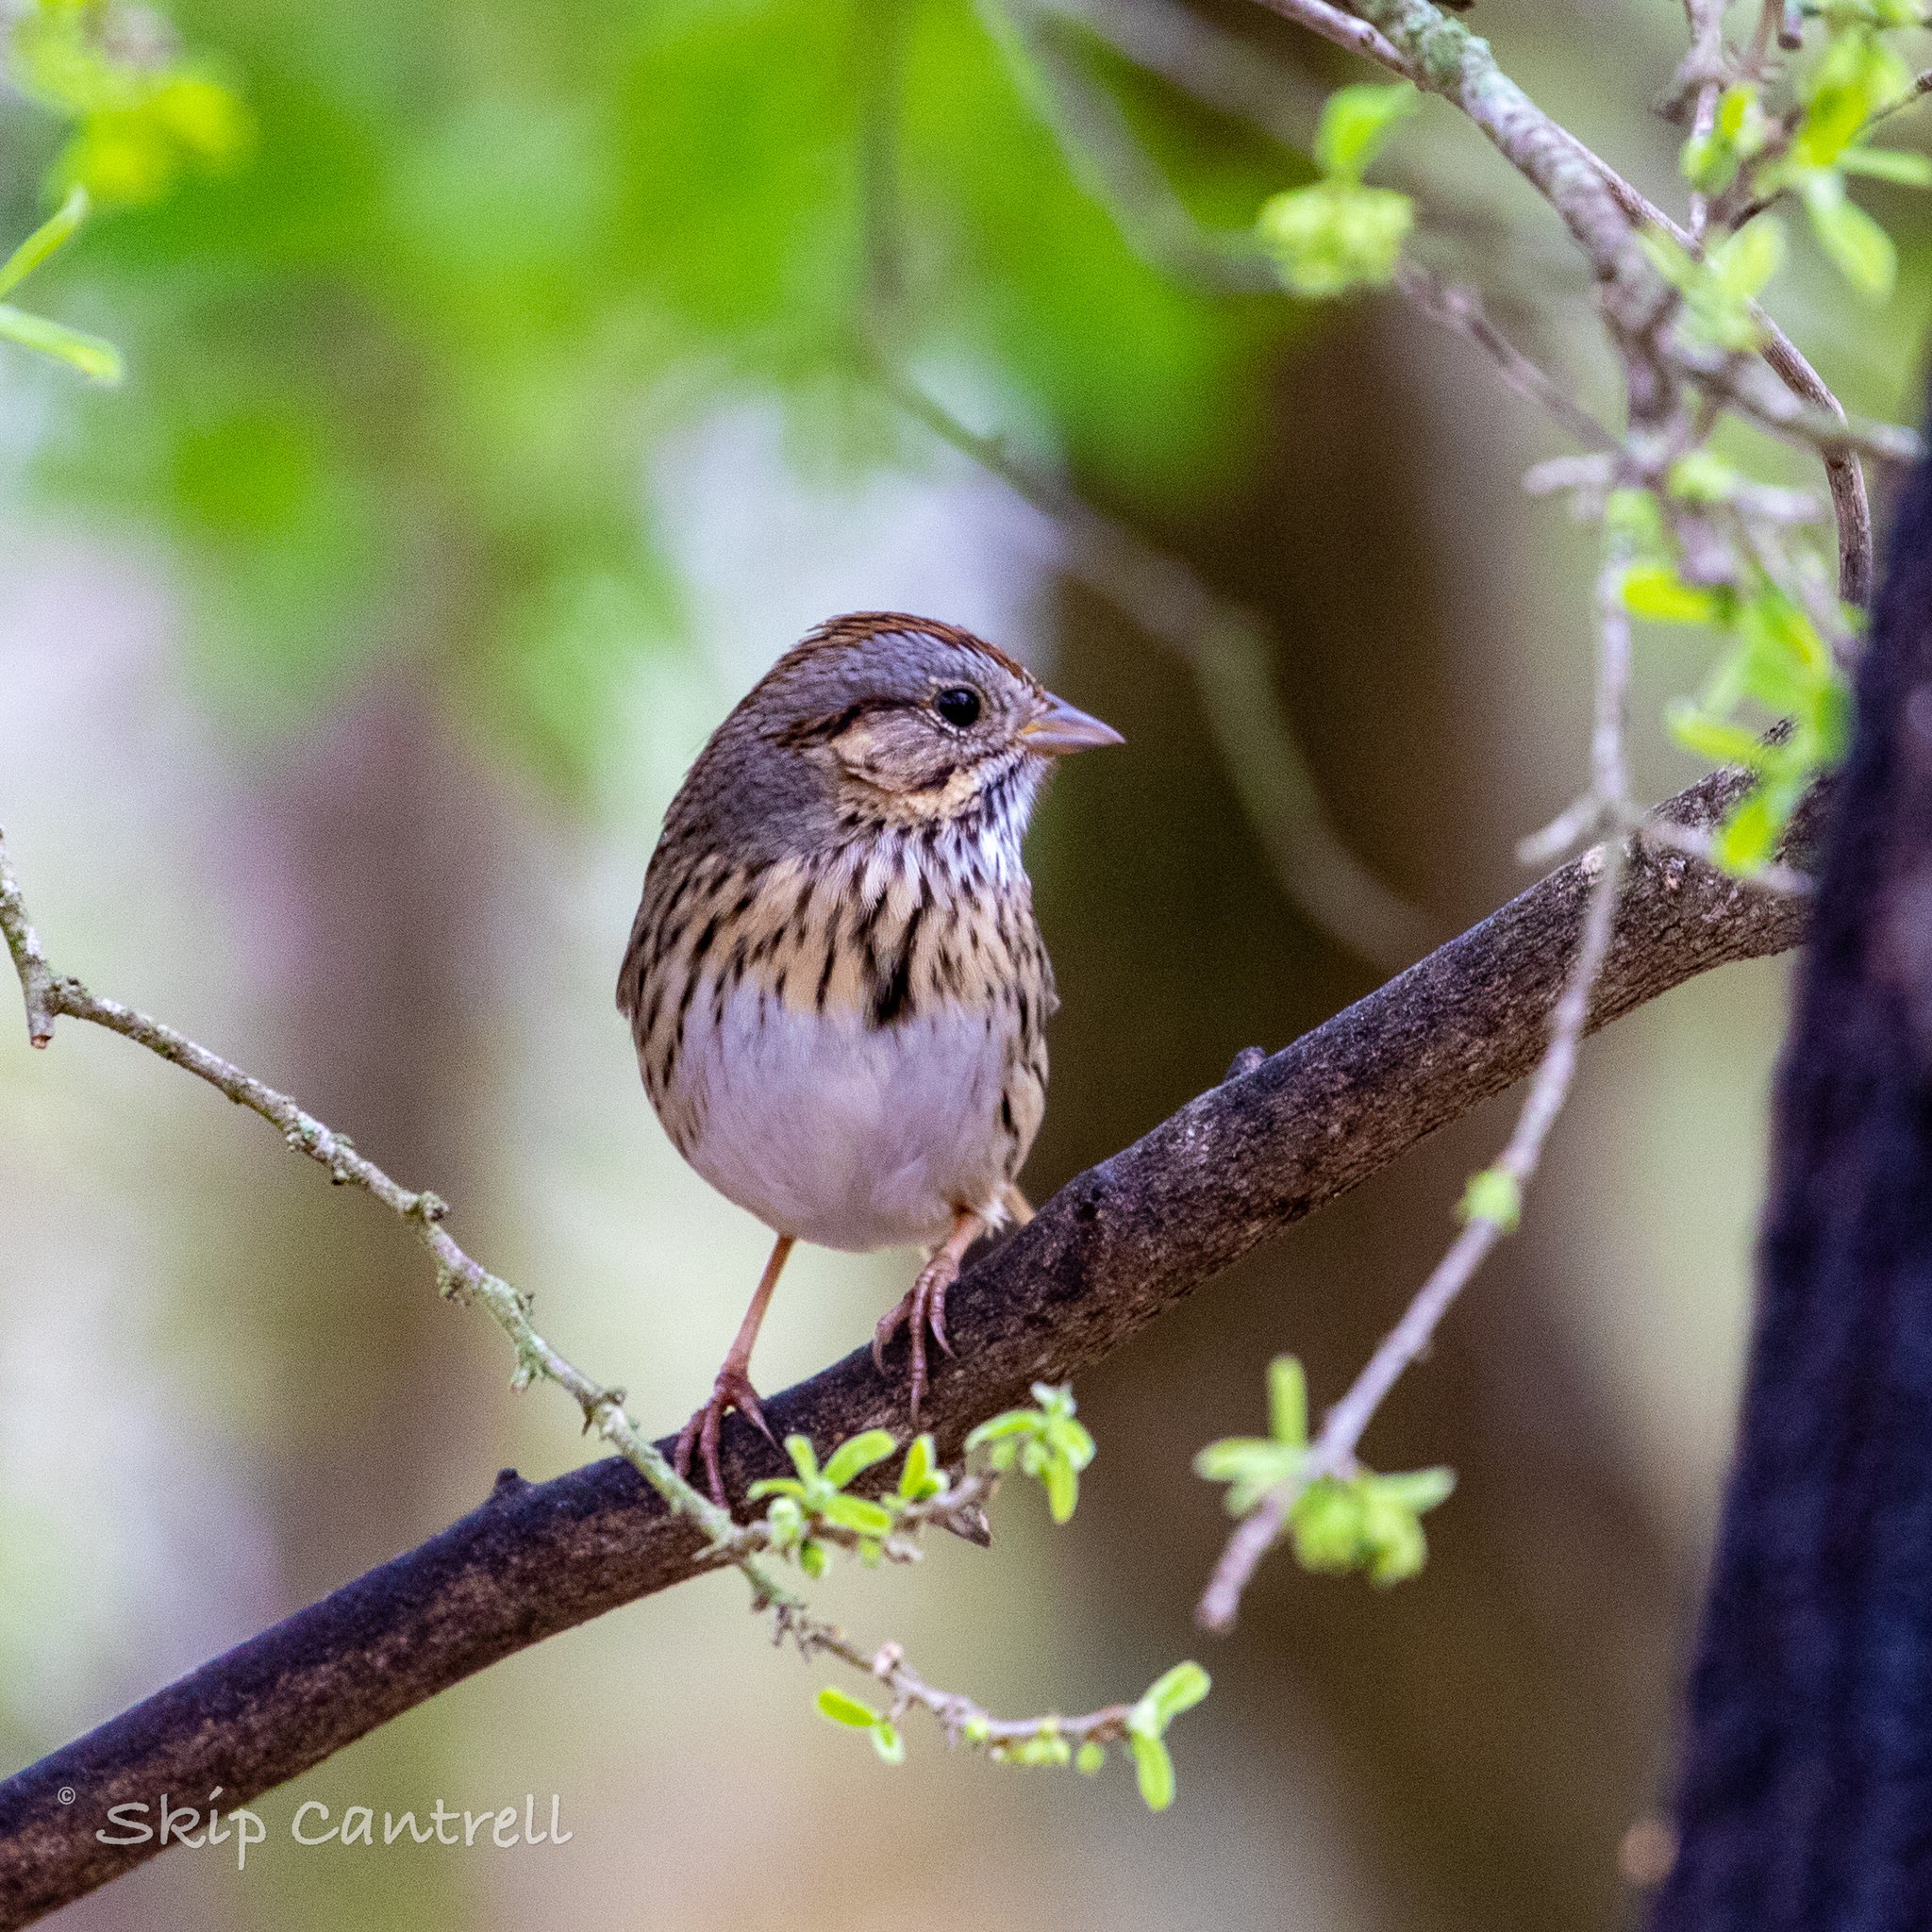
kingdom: Animalia
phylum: Chordata
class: Aves
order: Passeriformes
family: Passerellidae
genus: Melospiza
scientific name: Melospiza lincolnii
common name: Lincoln's sparrow
